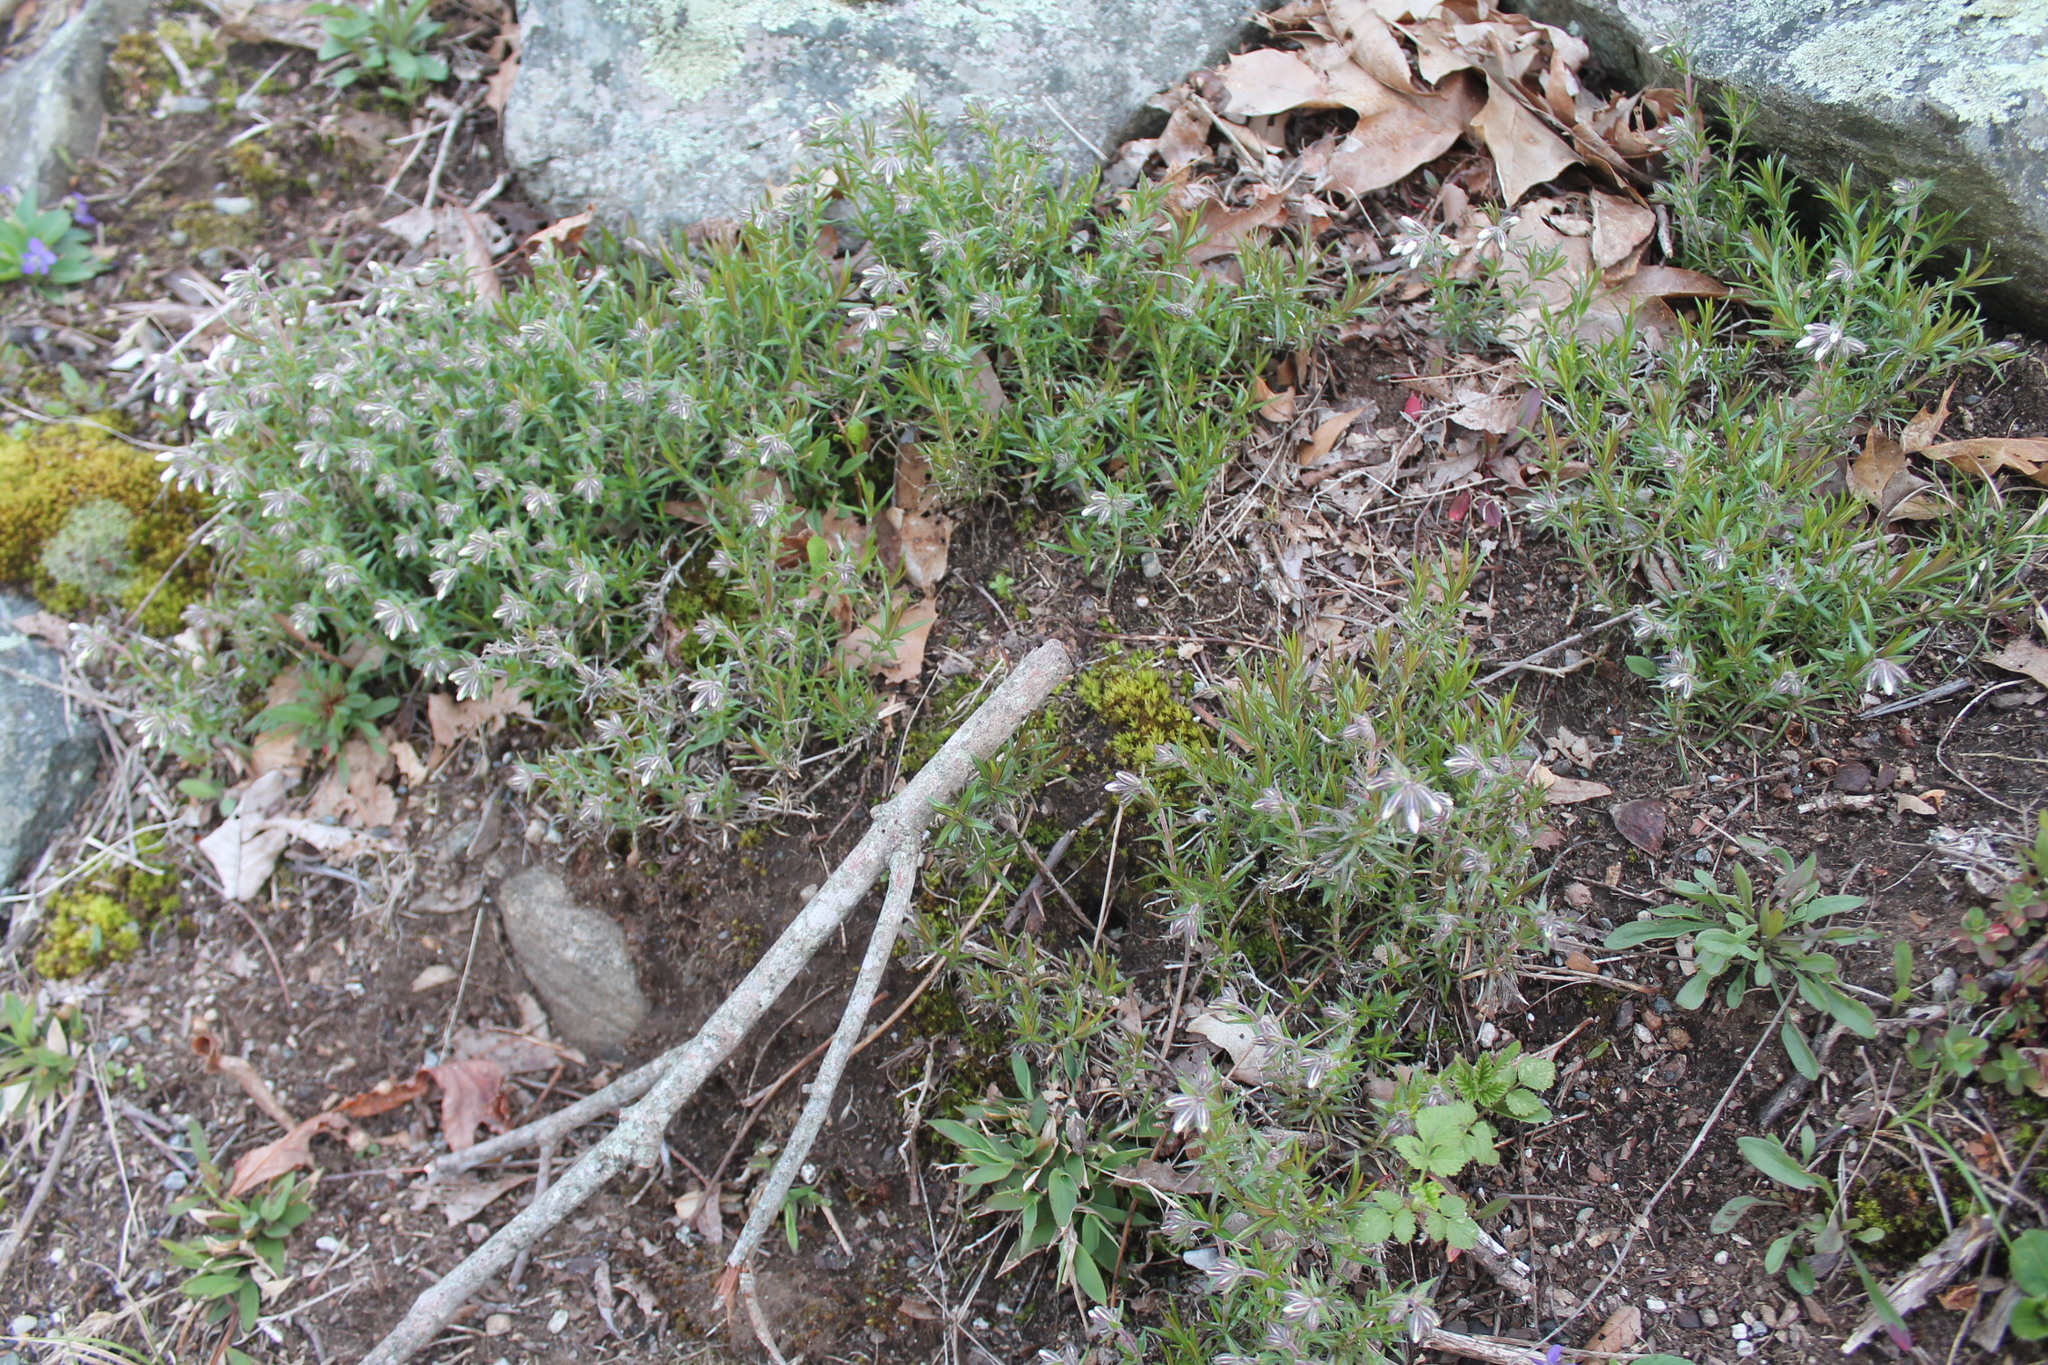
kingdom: Plantae
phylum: Tracheophyta
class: Magnoliopsida
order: Ericales
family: Polemoniaceae
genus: Phlox
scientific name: Phlox subulata
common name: Moss phlox
